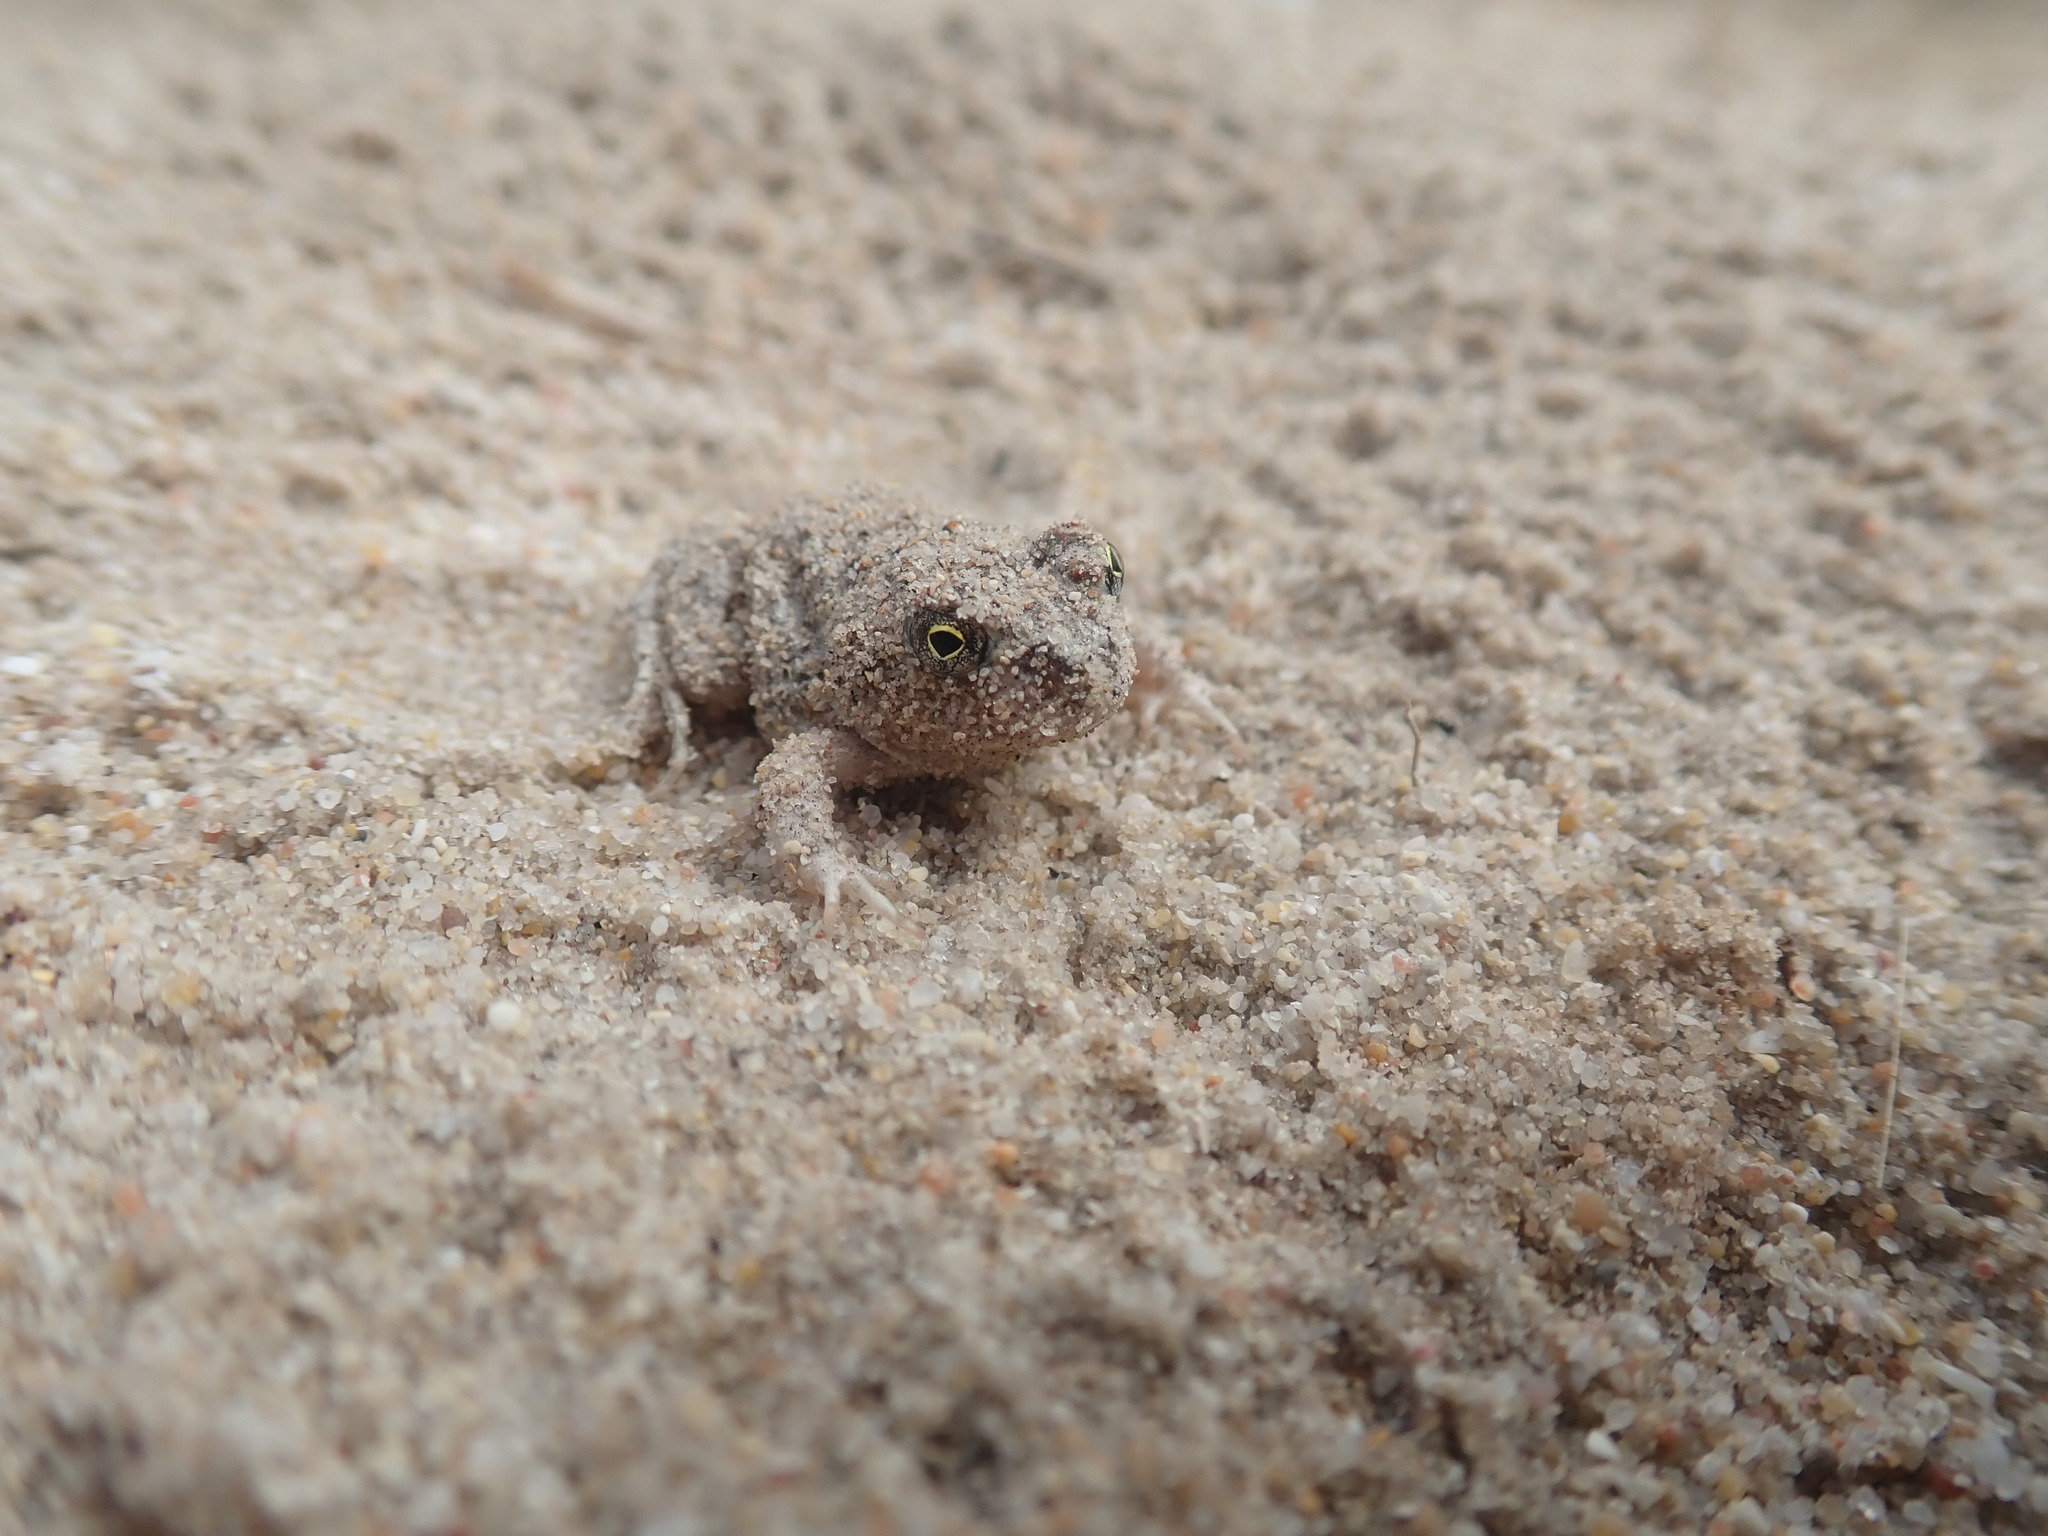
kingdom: Animalia
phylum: Chordata
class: Amphibia
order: Anura
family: Pyxicephalidae
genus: Tomopterna
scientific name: Tomopterna delalandii
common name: Delalande's burrowing bullfrog
